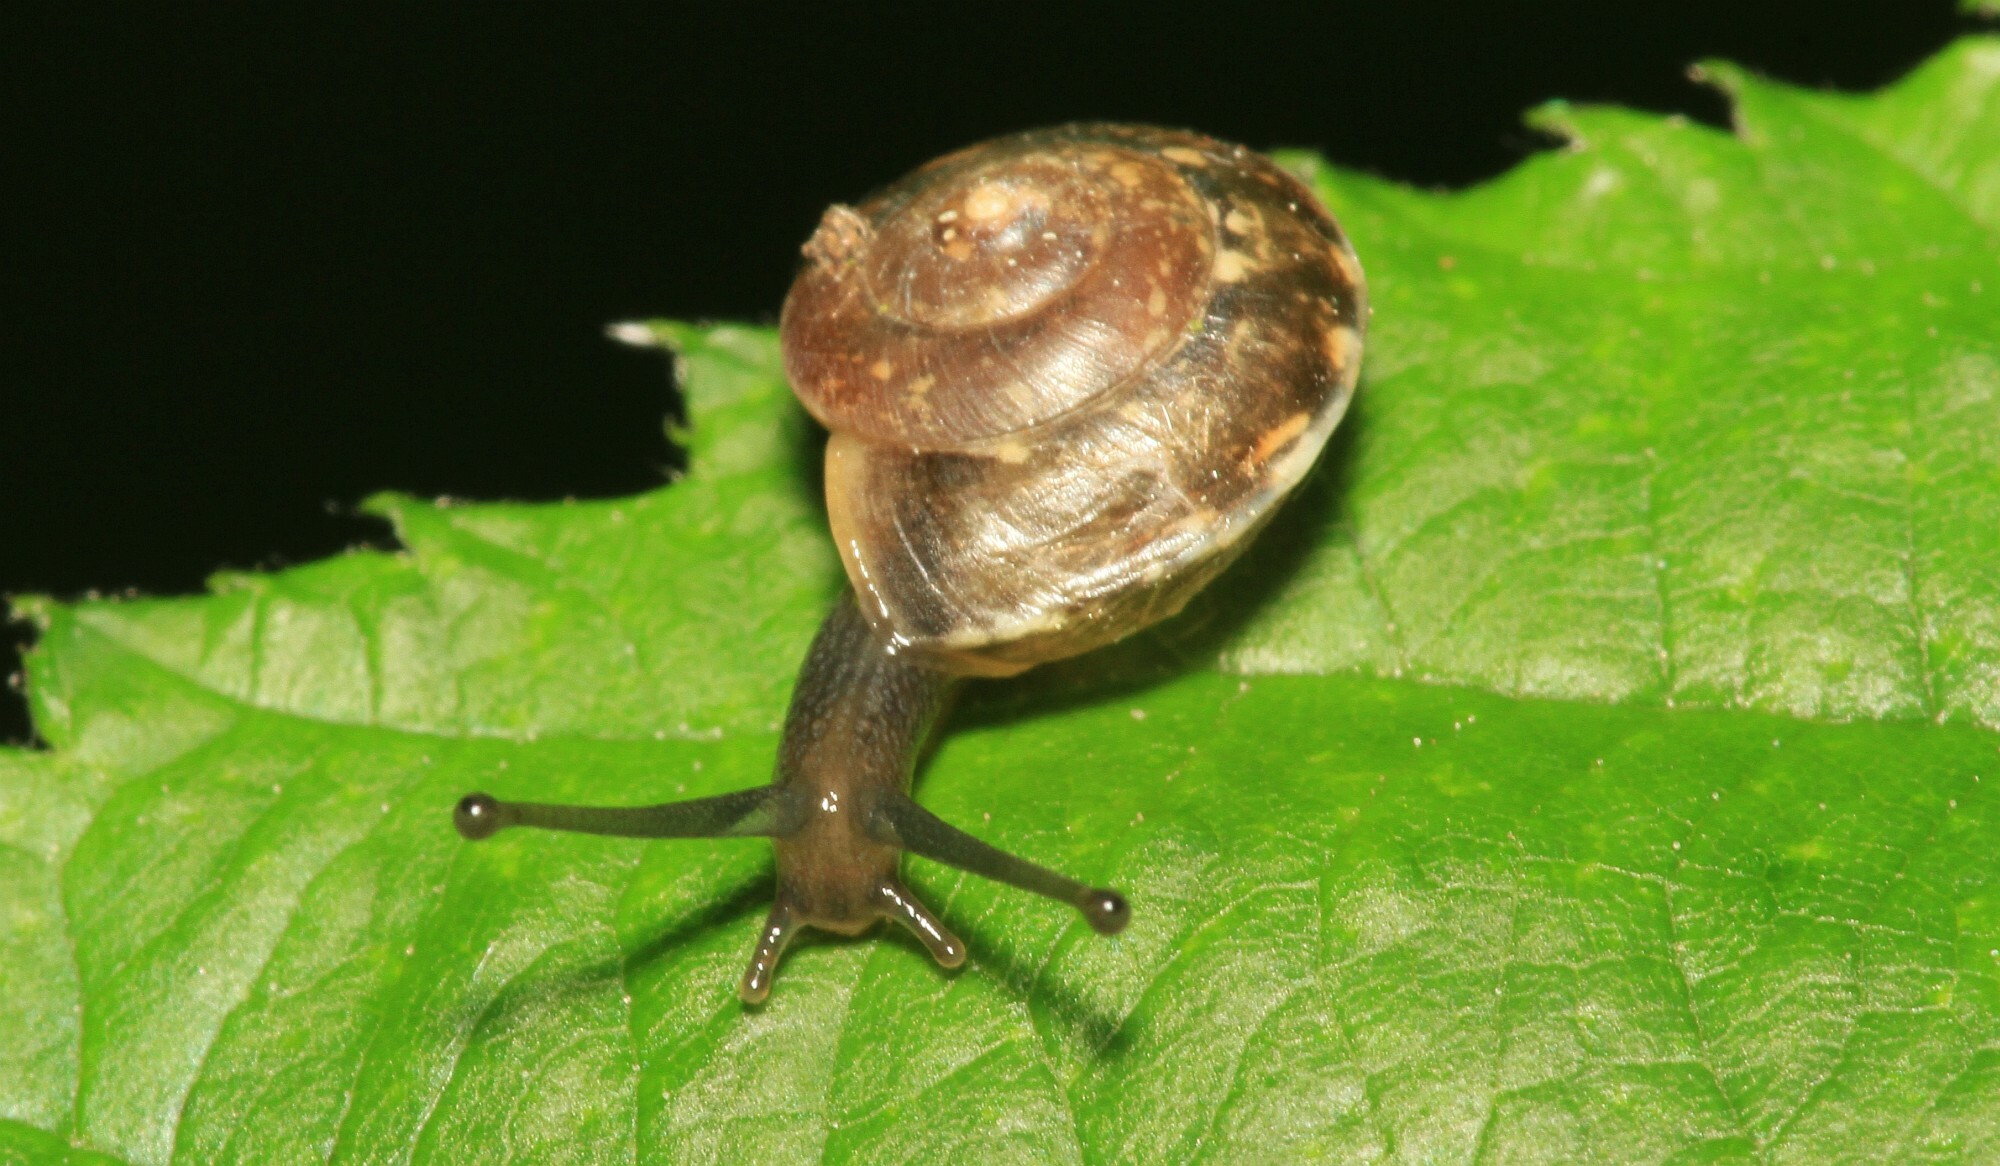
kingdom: Animalia
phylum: Mollusca
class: Gastropoda
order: Stylommatophora
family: Hygromiidae
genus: Hygromia
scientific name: Hygromia cinctella
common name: Girdled snail
